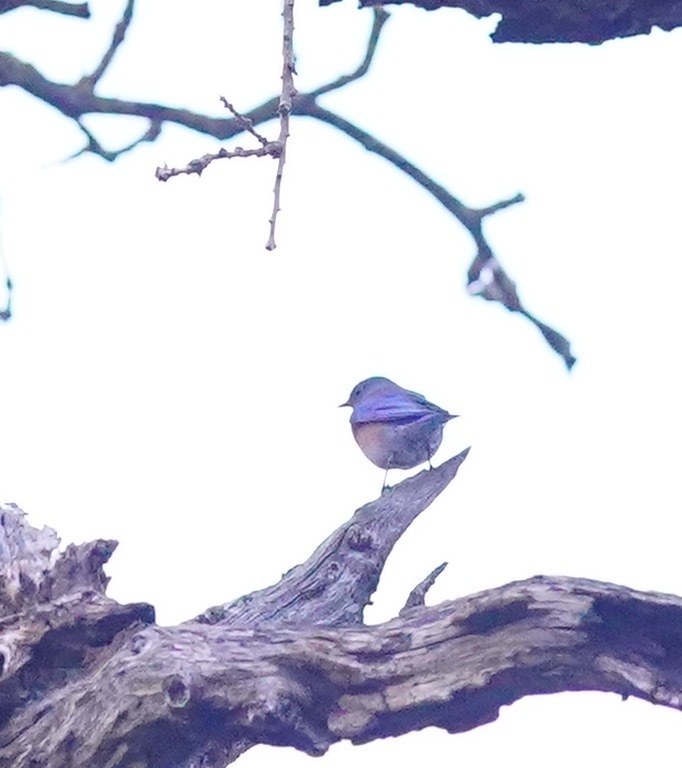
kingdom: Animalia
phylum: Chordata
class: Aves
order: Passeriformes
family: Turdidae
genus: Sialia
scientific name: Sialia mexicana
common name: Western bluebird
